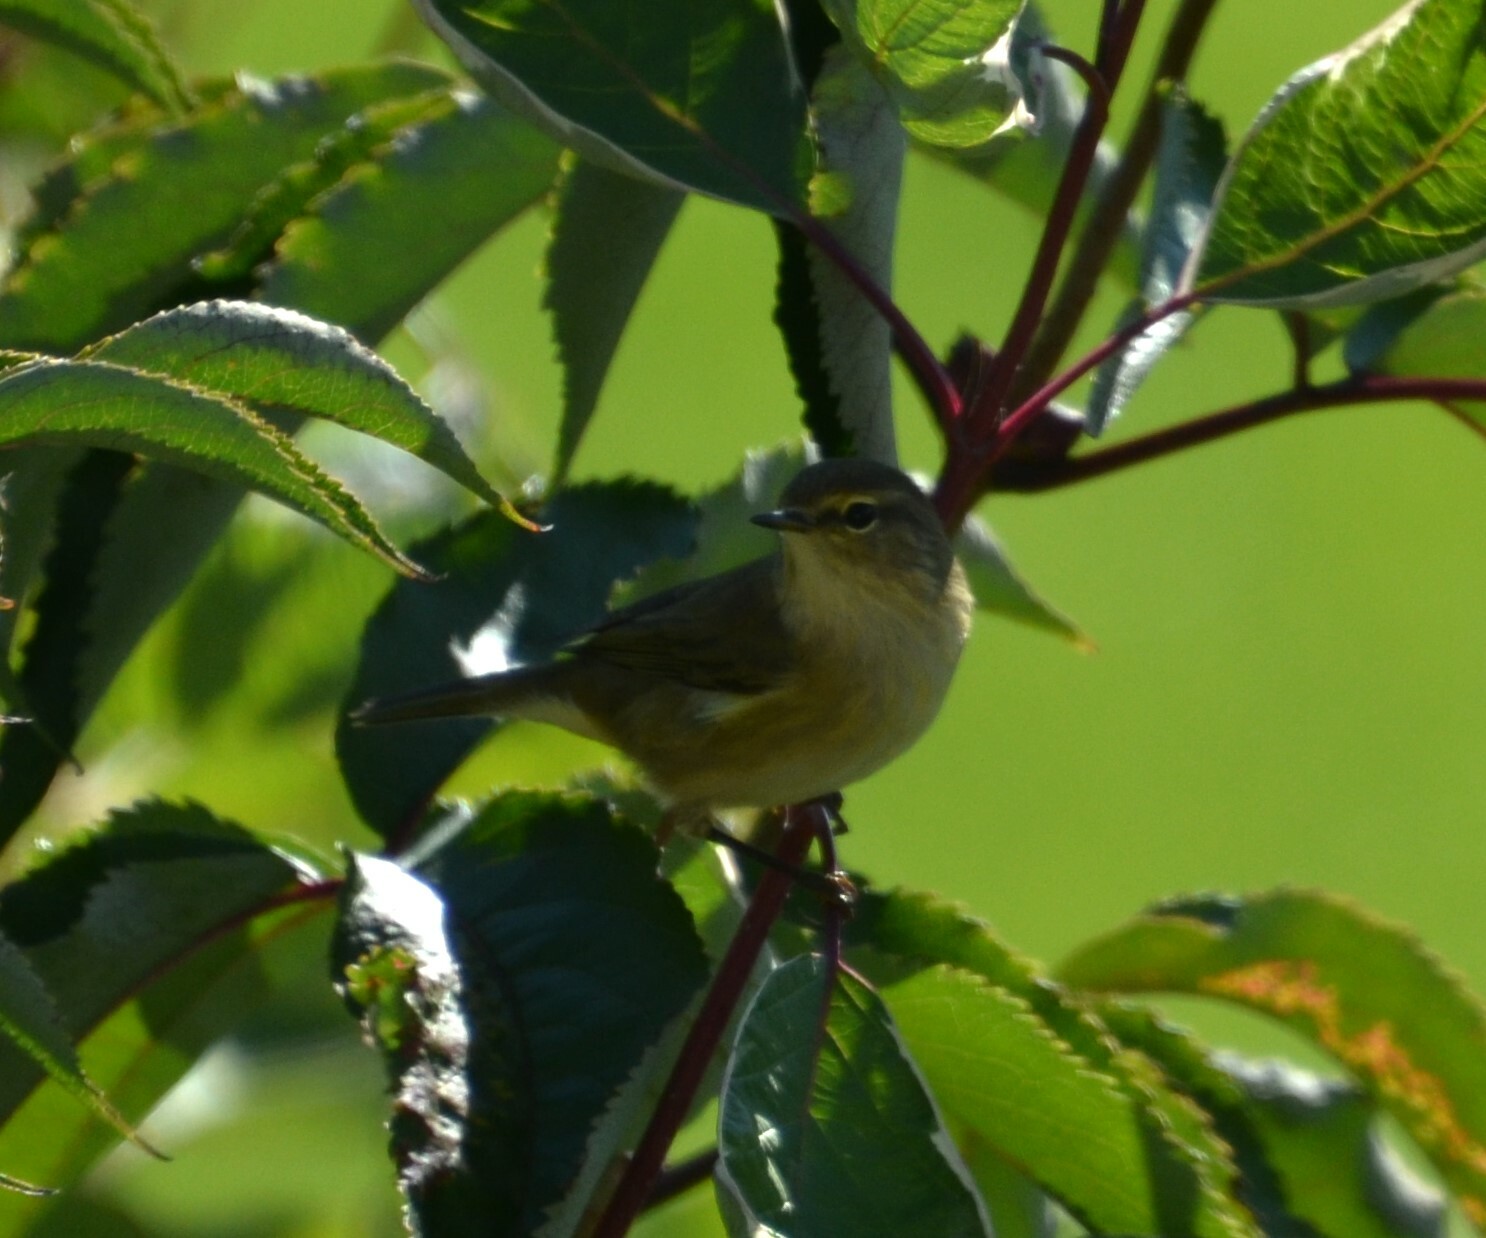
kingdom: Animalia
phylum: Chordata
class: Aves
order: Passeriformes
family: Phylloscopidae
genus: Phylloscopus
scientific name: Phylloscopus collybita
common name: Common chiffchaff
